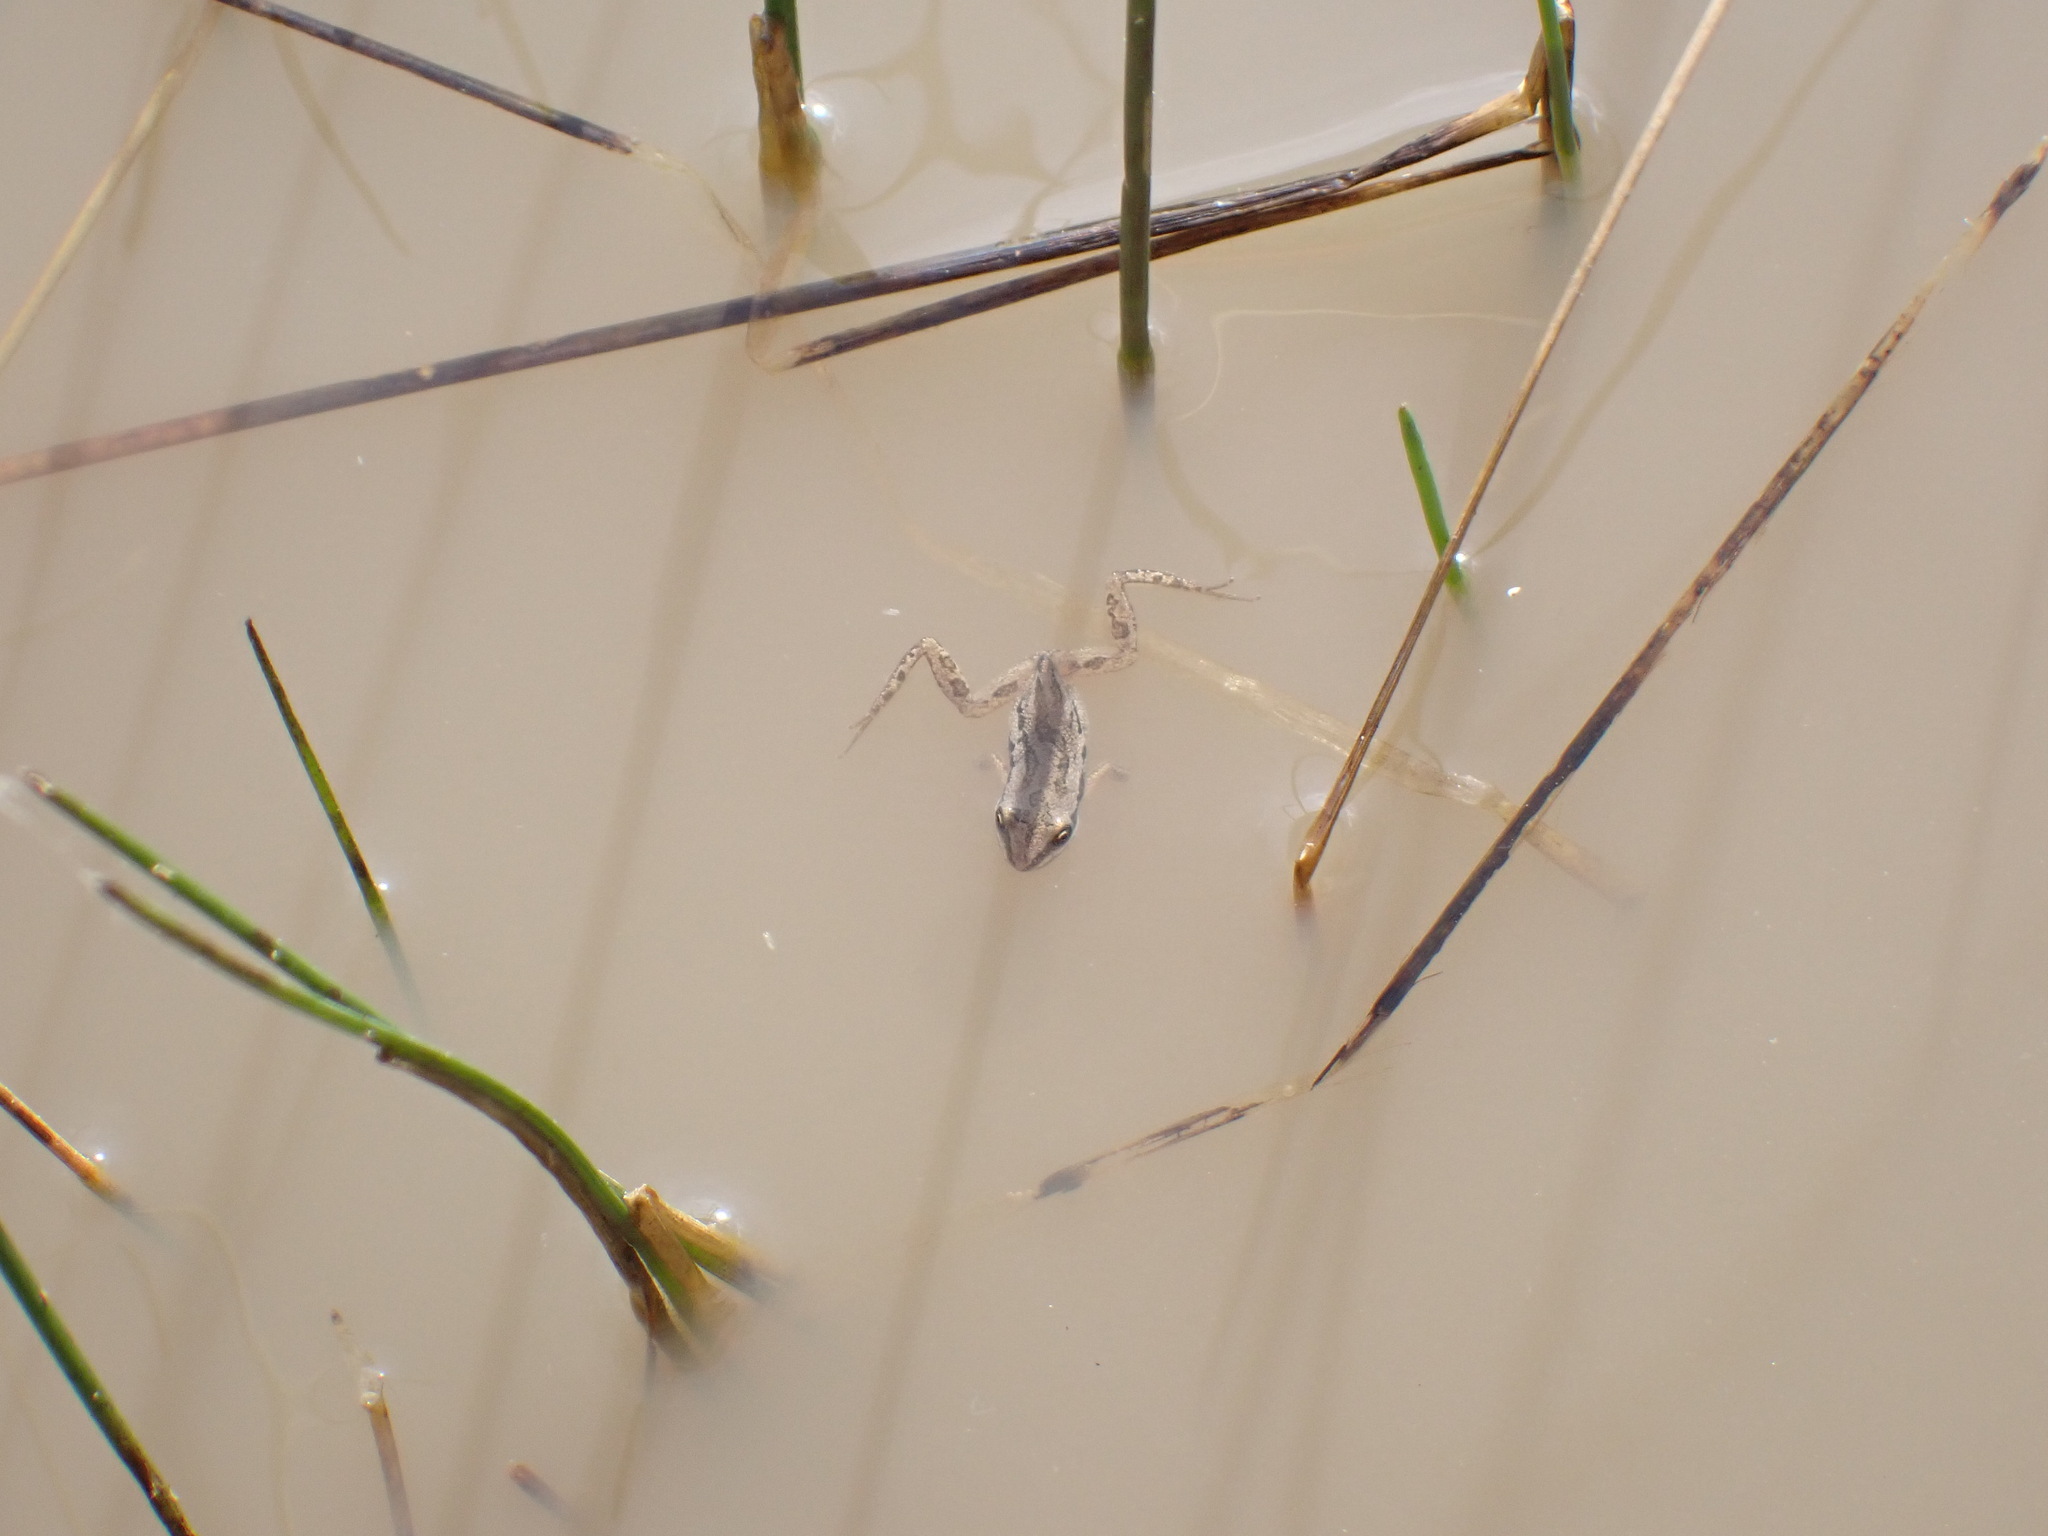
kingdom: Animalia
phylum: Chordata
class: Amphibia
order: Anura
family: Hylidae
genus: Pseudacris
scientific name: Pseudacris maculata
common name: Boreal chorus frog
